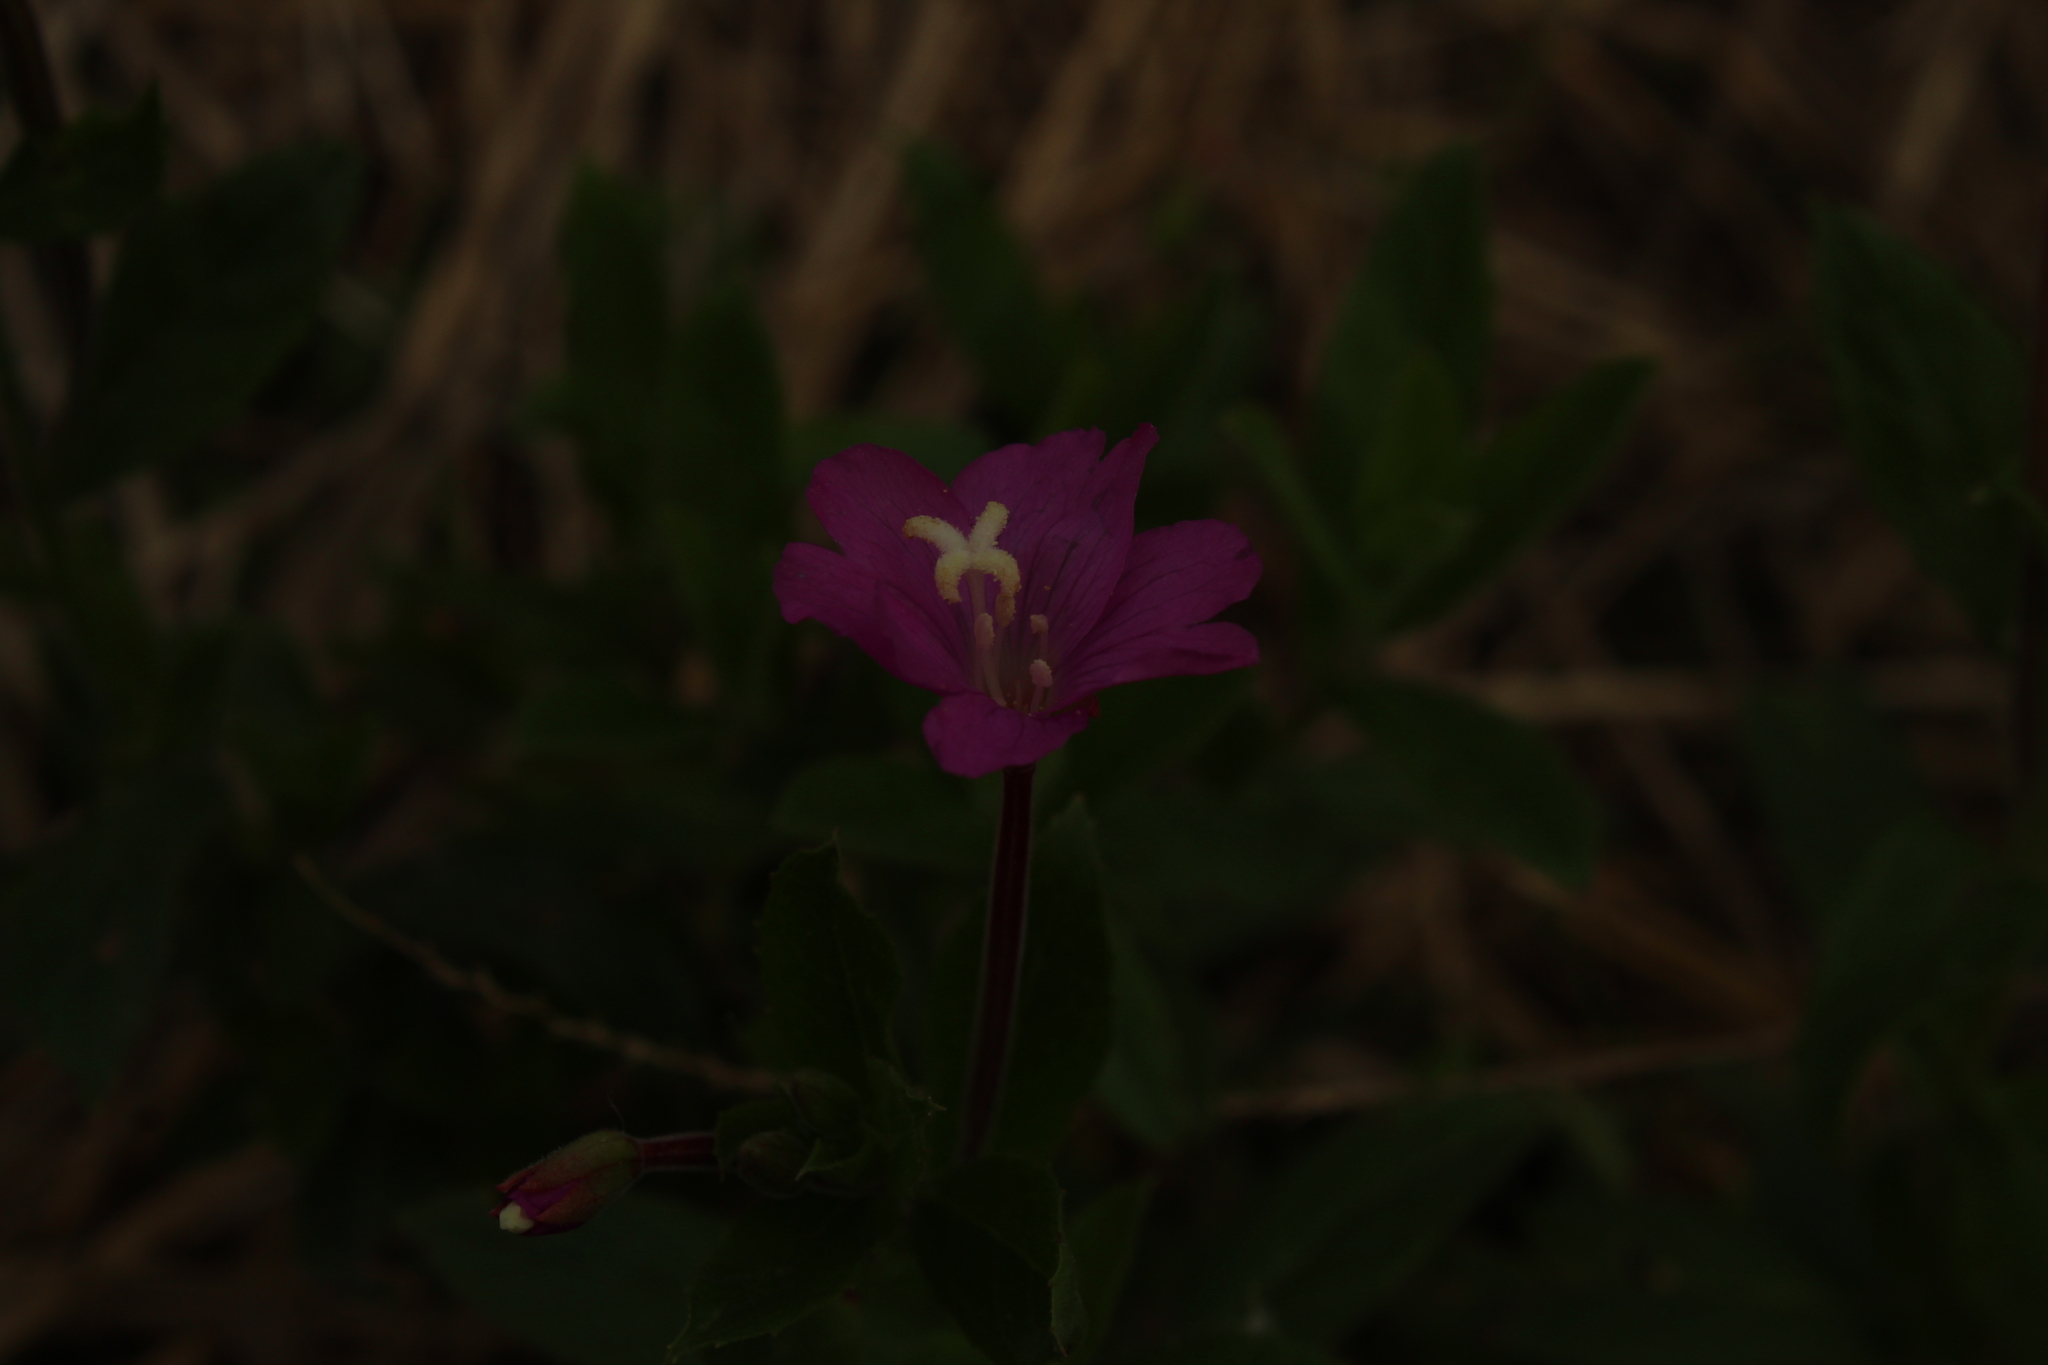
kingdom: Plantae
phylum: Tracheophyta
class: Magnoliopsida
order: Myrtales
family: Onagraceae
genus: Epilobium
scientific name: Epilobium hirsutum
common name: Great willowherb
